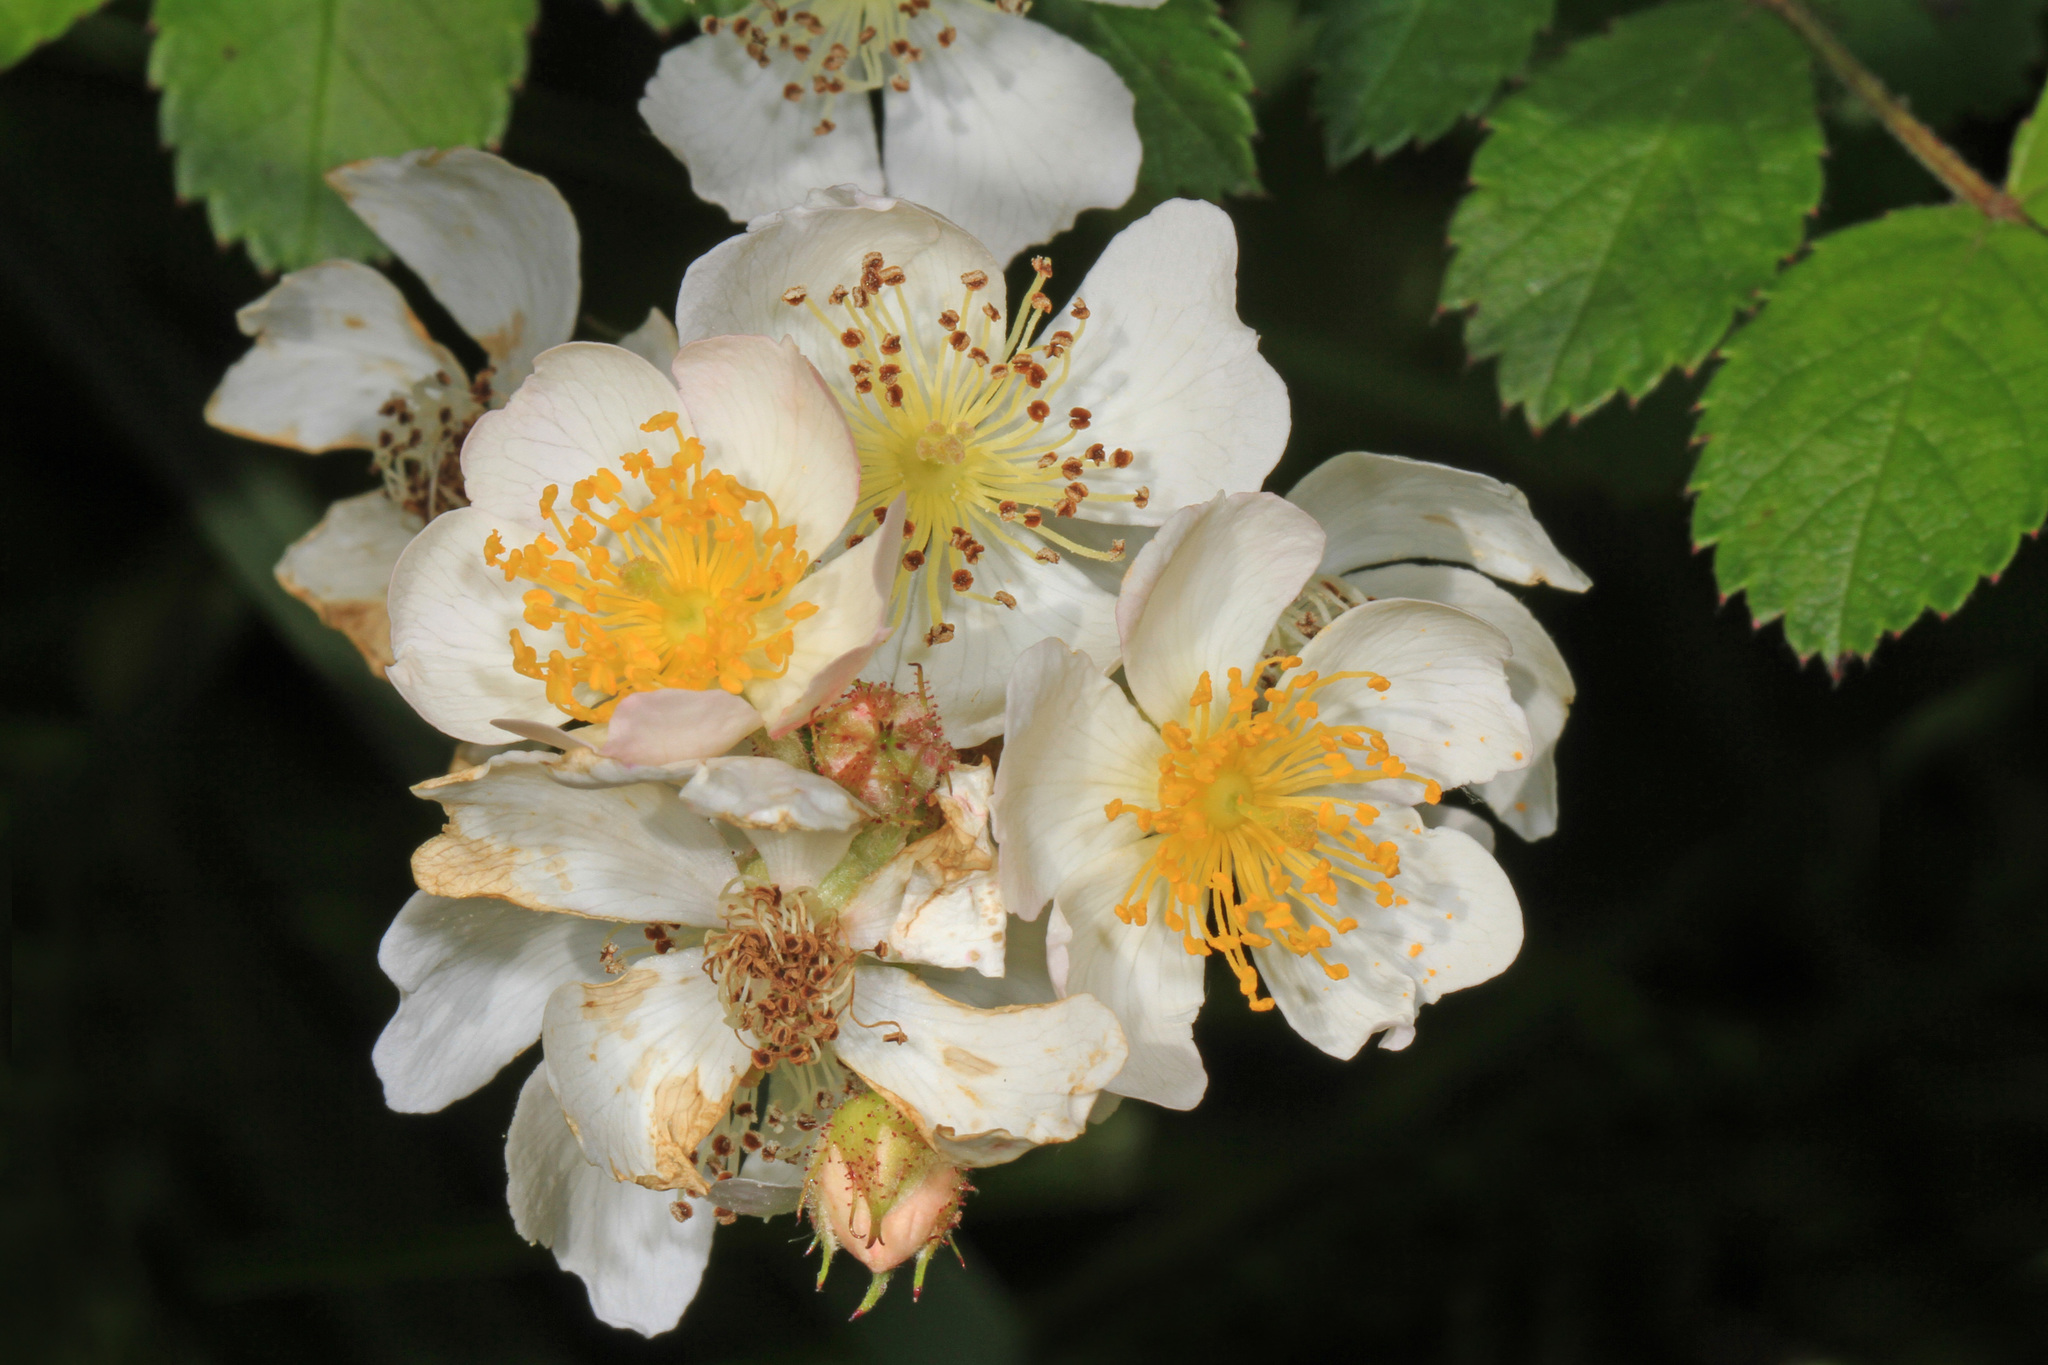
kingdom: Plantae
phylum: Tracheophyta
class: Magnoliopsida
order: Rosales
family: Rosaceae
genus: Rosa
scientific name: Rosa multiflora
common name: Multiflora rose
